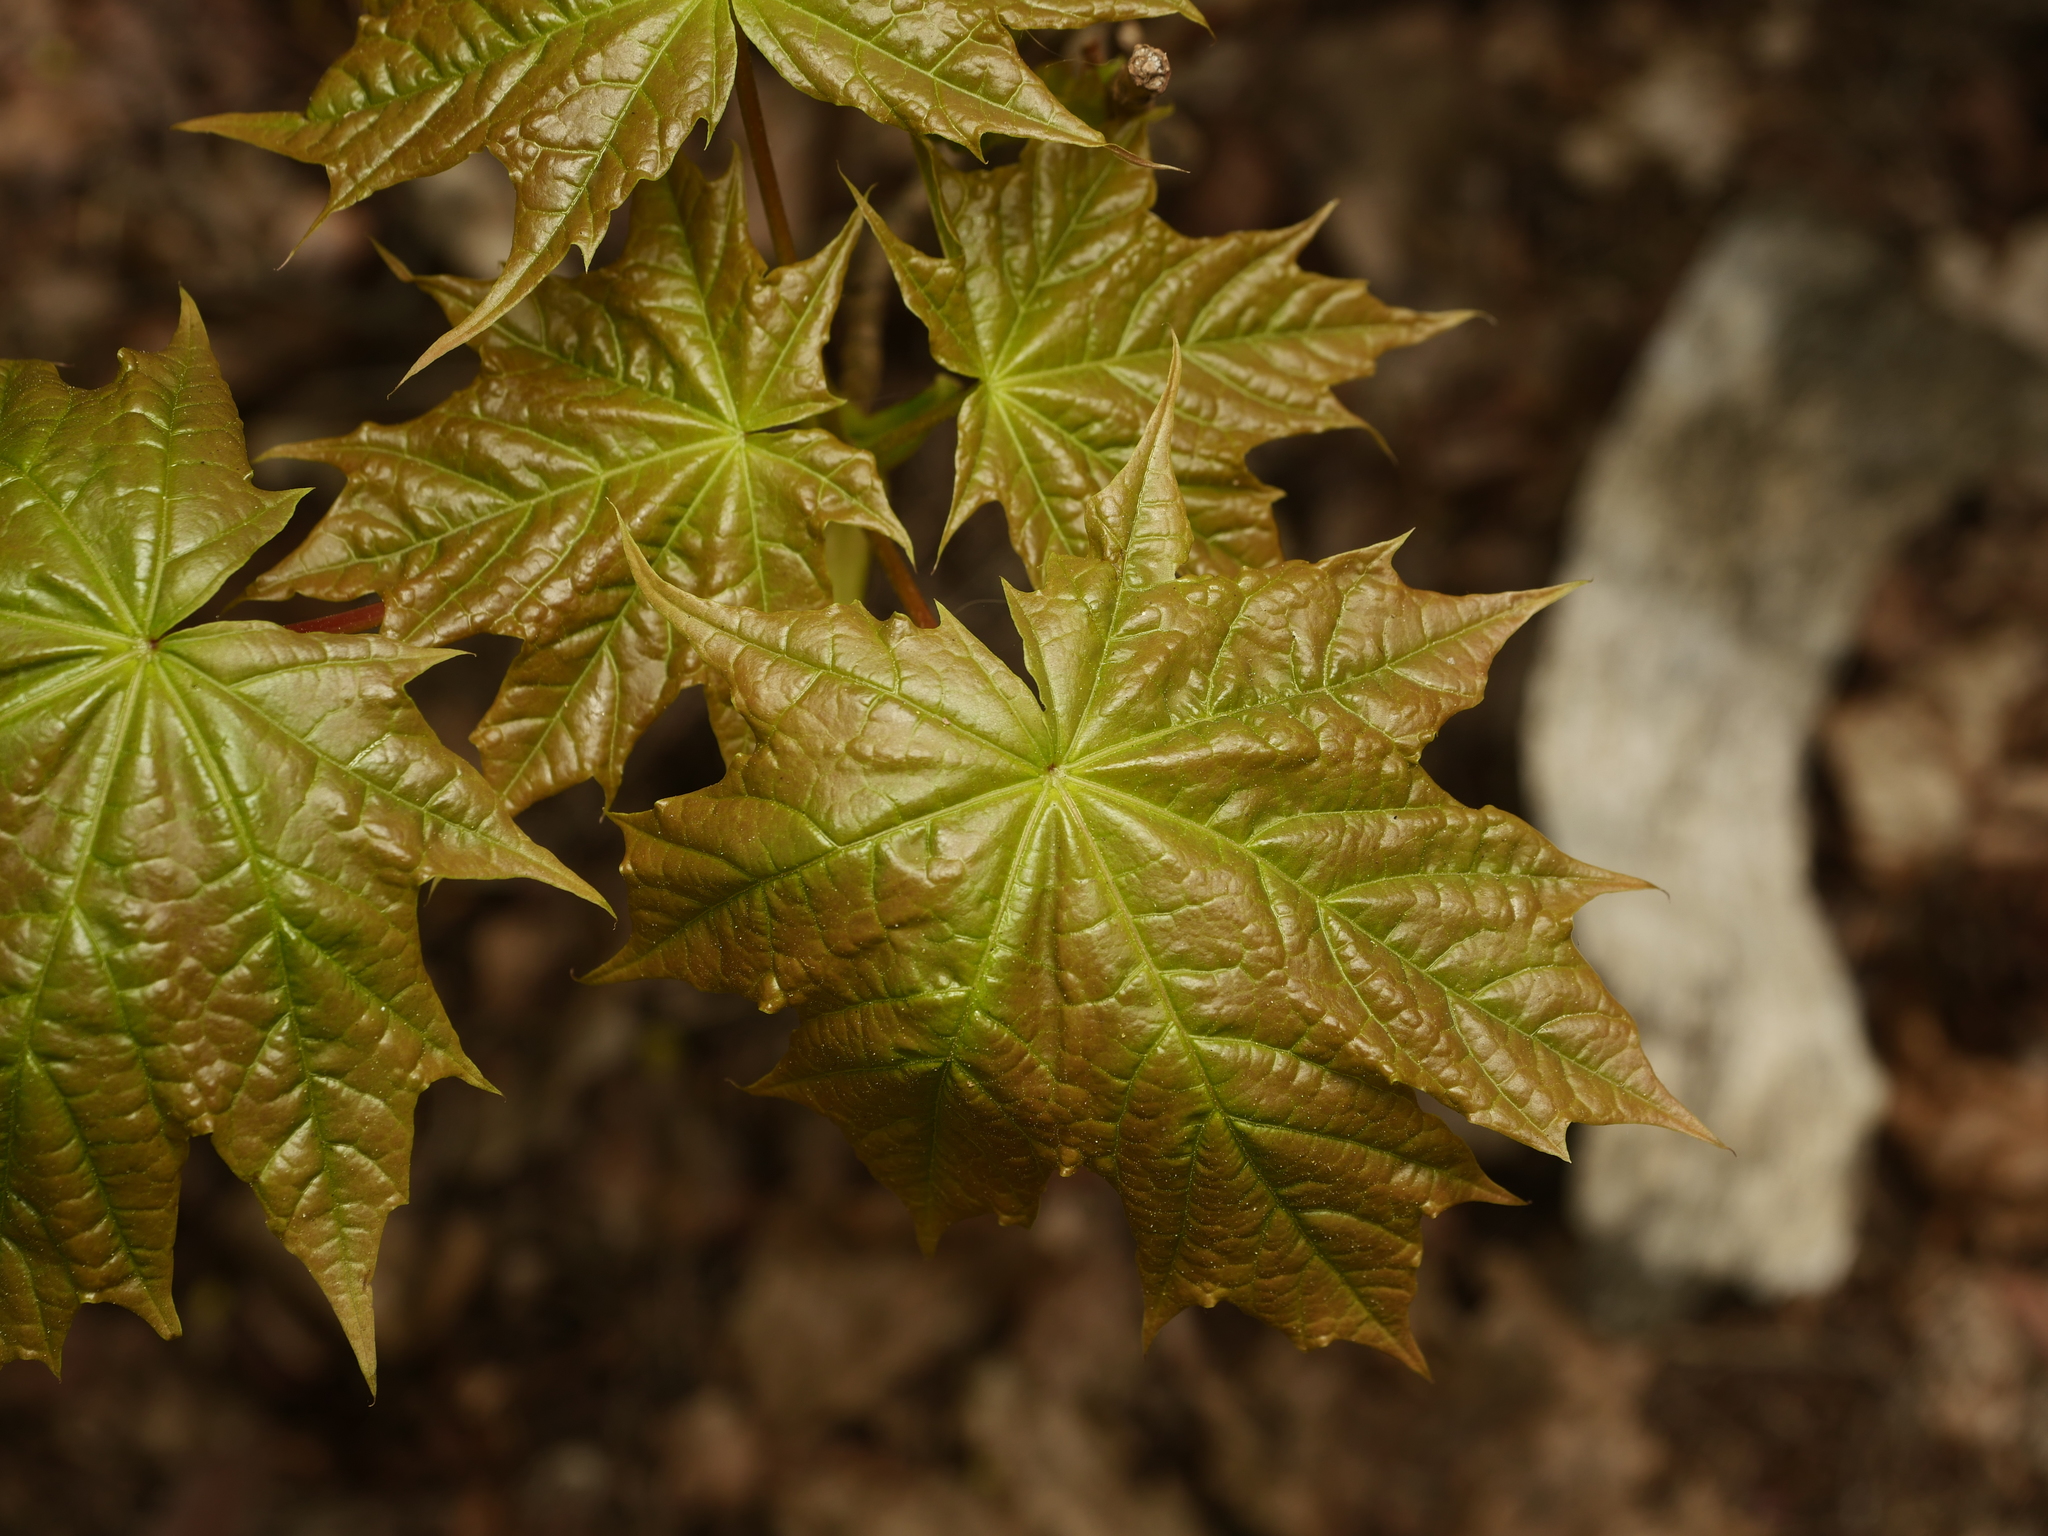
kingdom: Plantae
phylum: Tracheophyta
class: Magnoliopsida
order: Sapindales
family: Sapindaceae
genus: Acer
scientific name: Acer platanoides
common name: Norway maple
